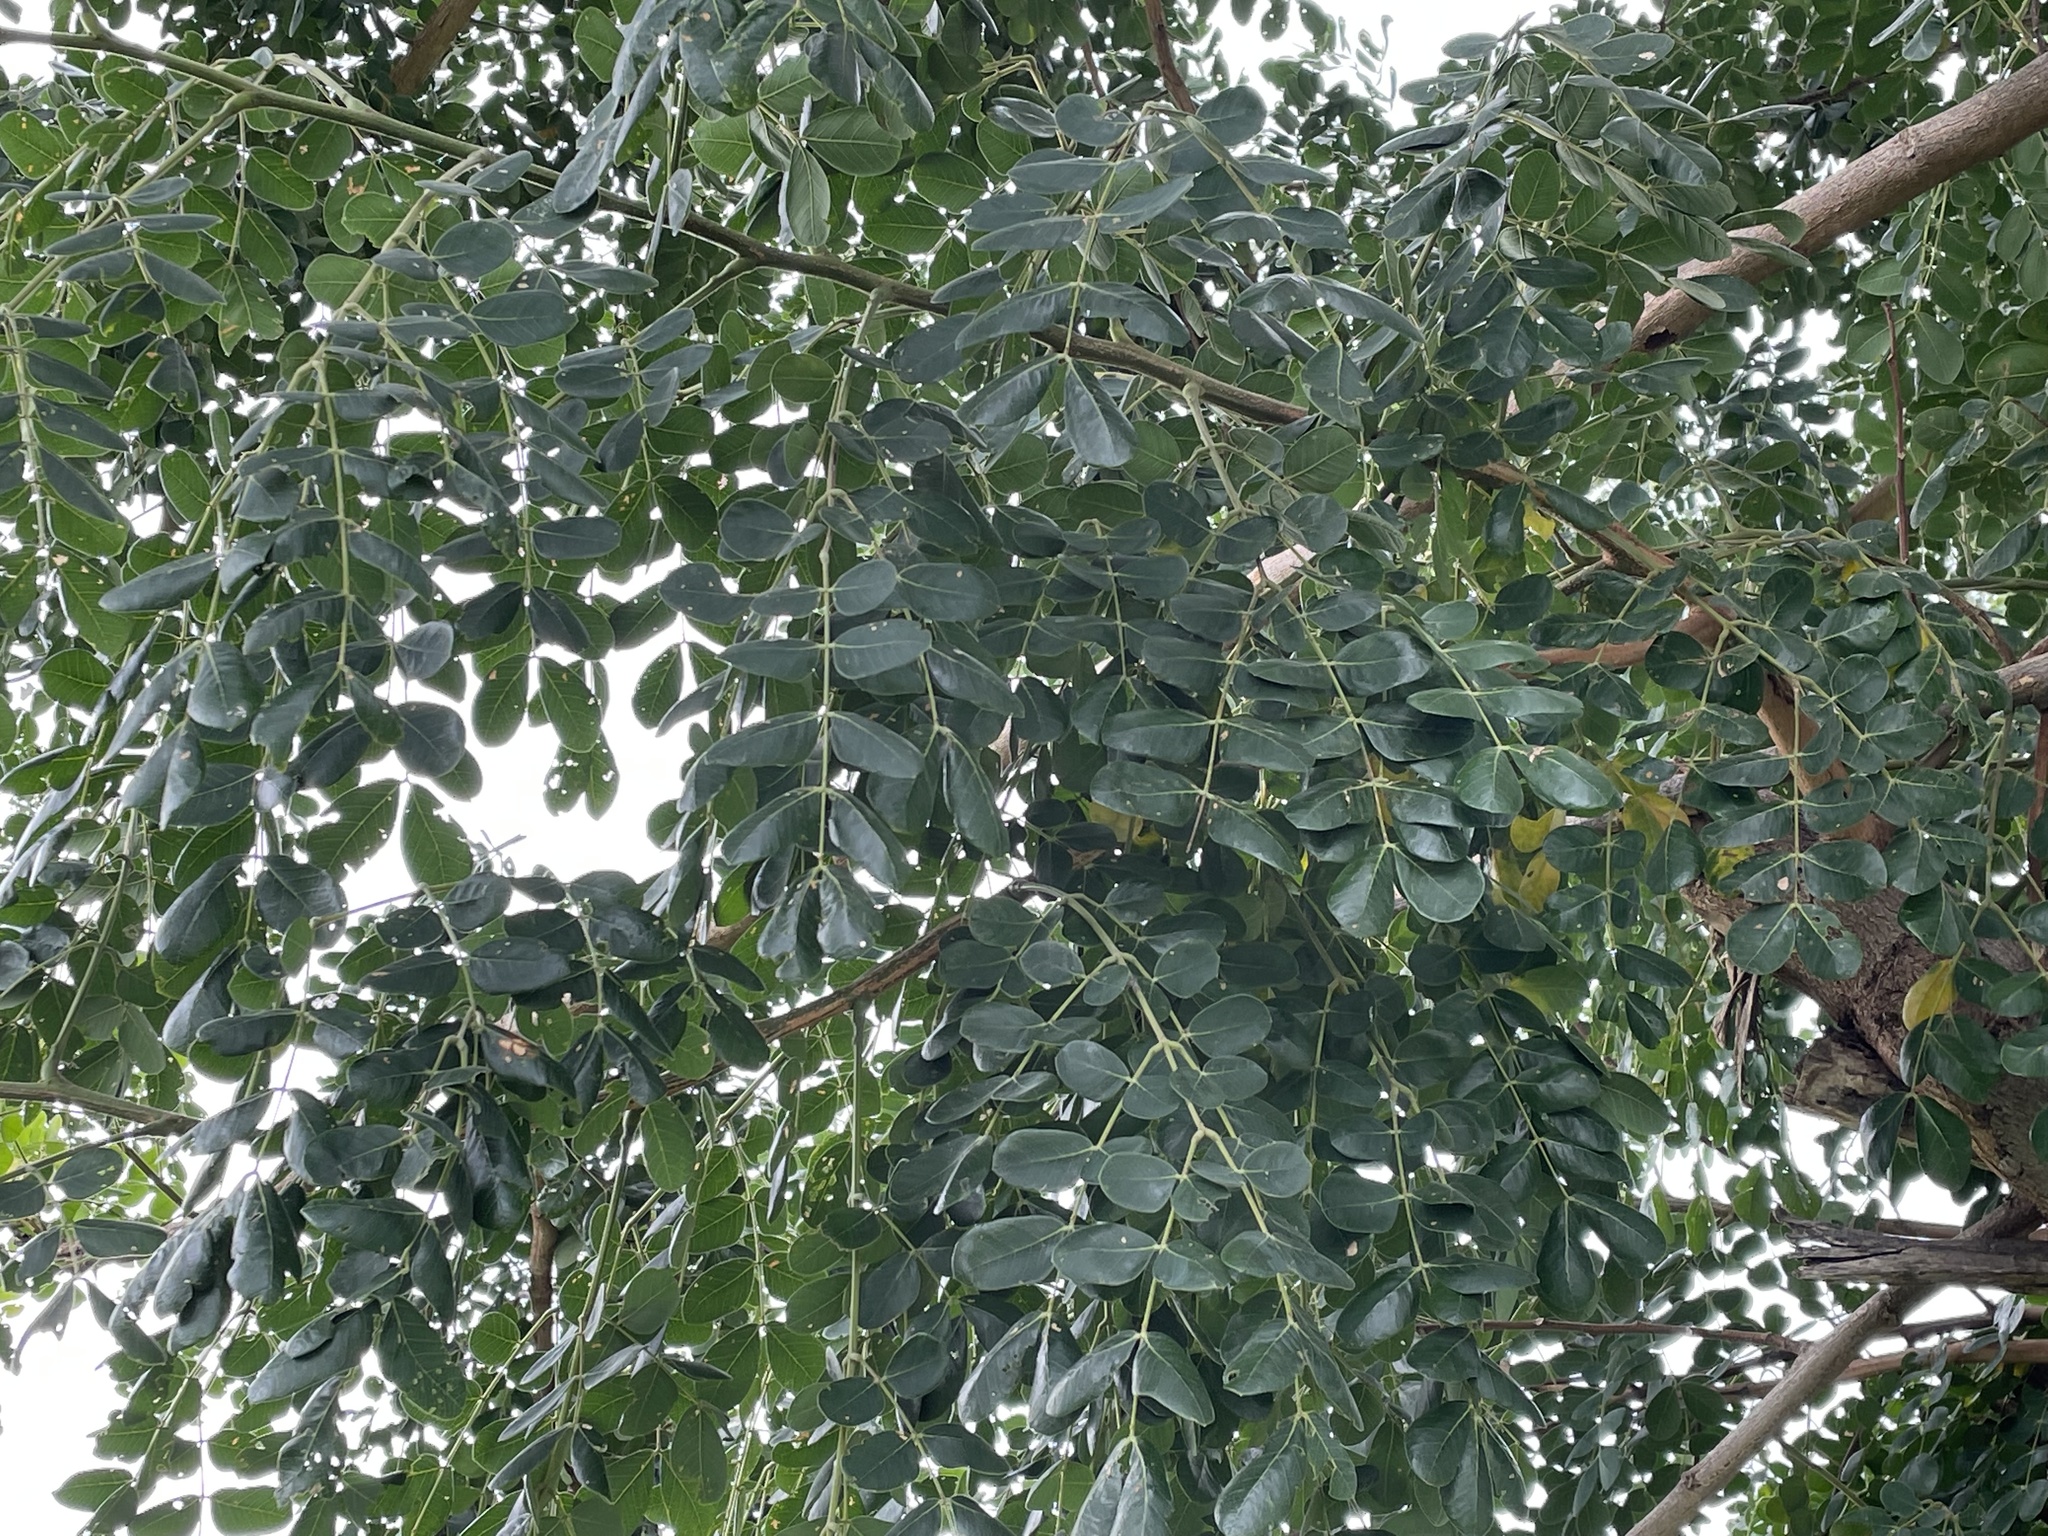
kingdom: Plantae
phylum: Tracheophyta
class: Magnoliopsida
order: Fabales
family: Fabaceae
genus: Albizia
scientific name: Albizia versicolor
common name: Poisonpod
